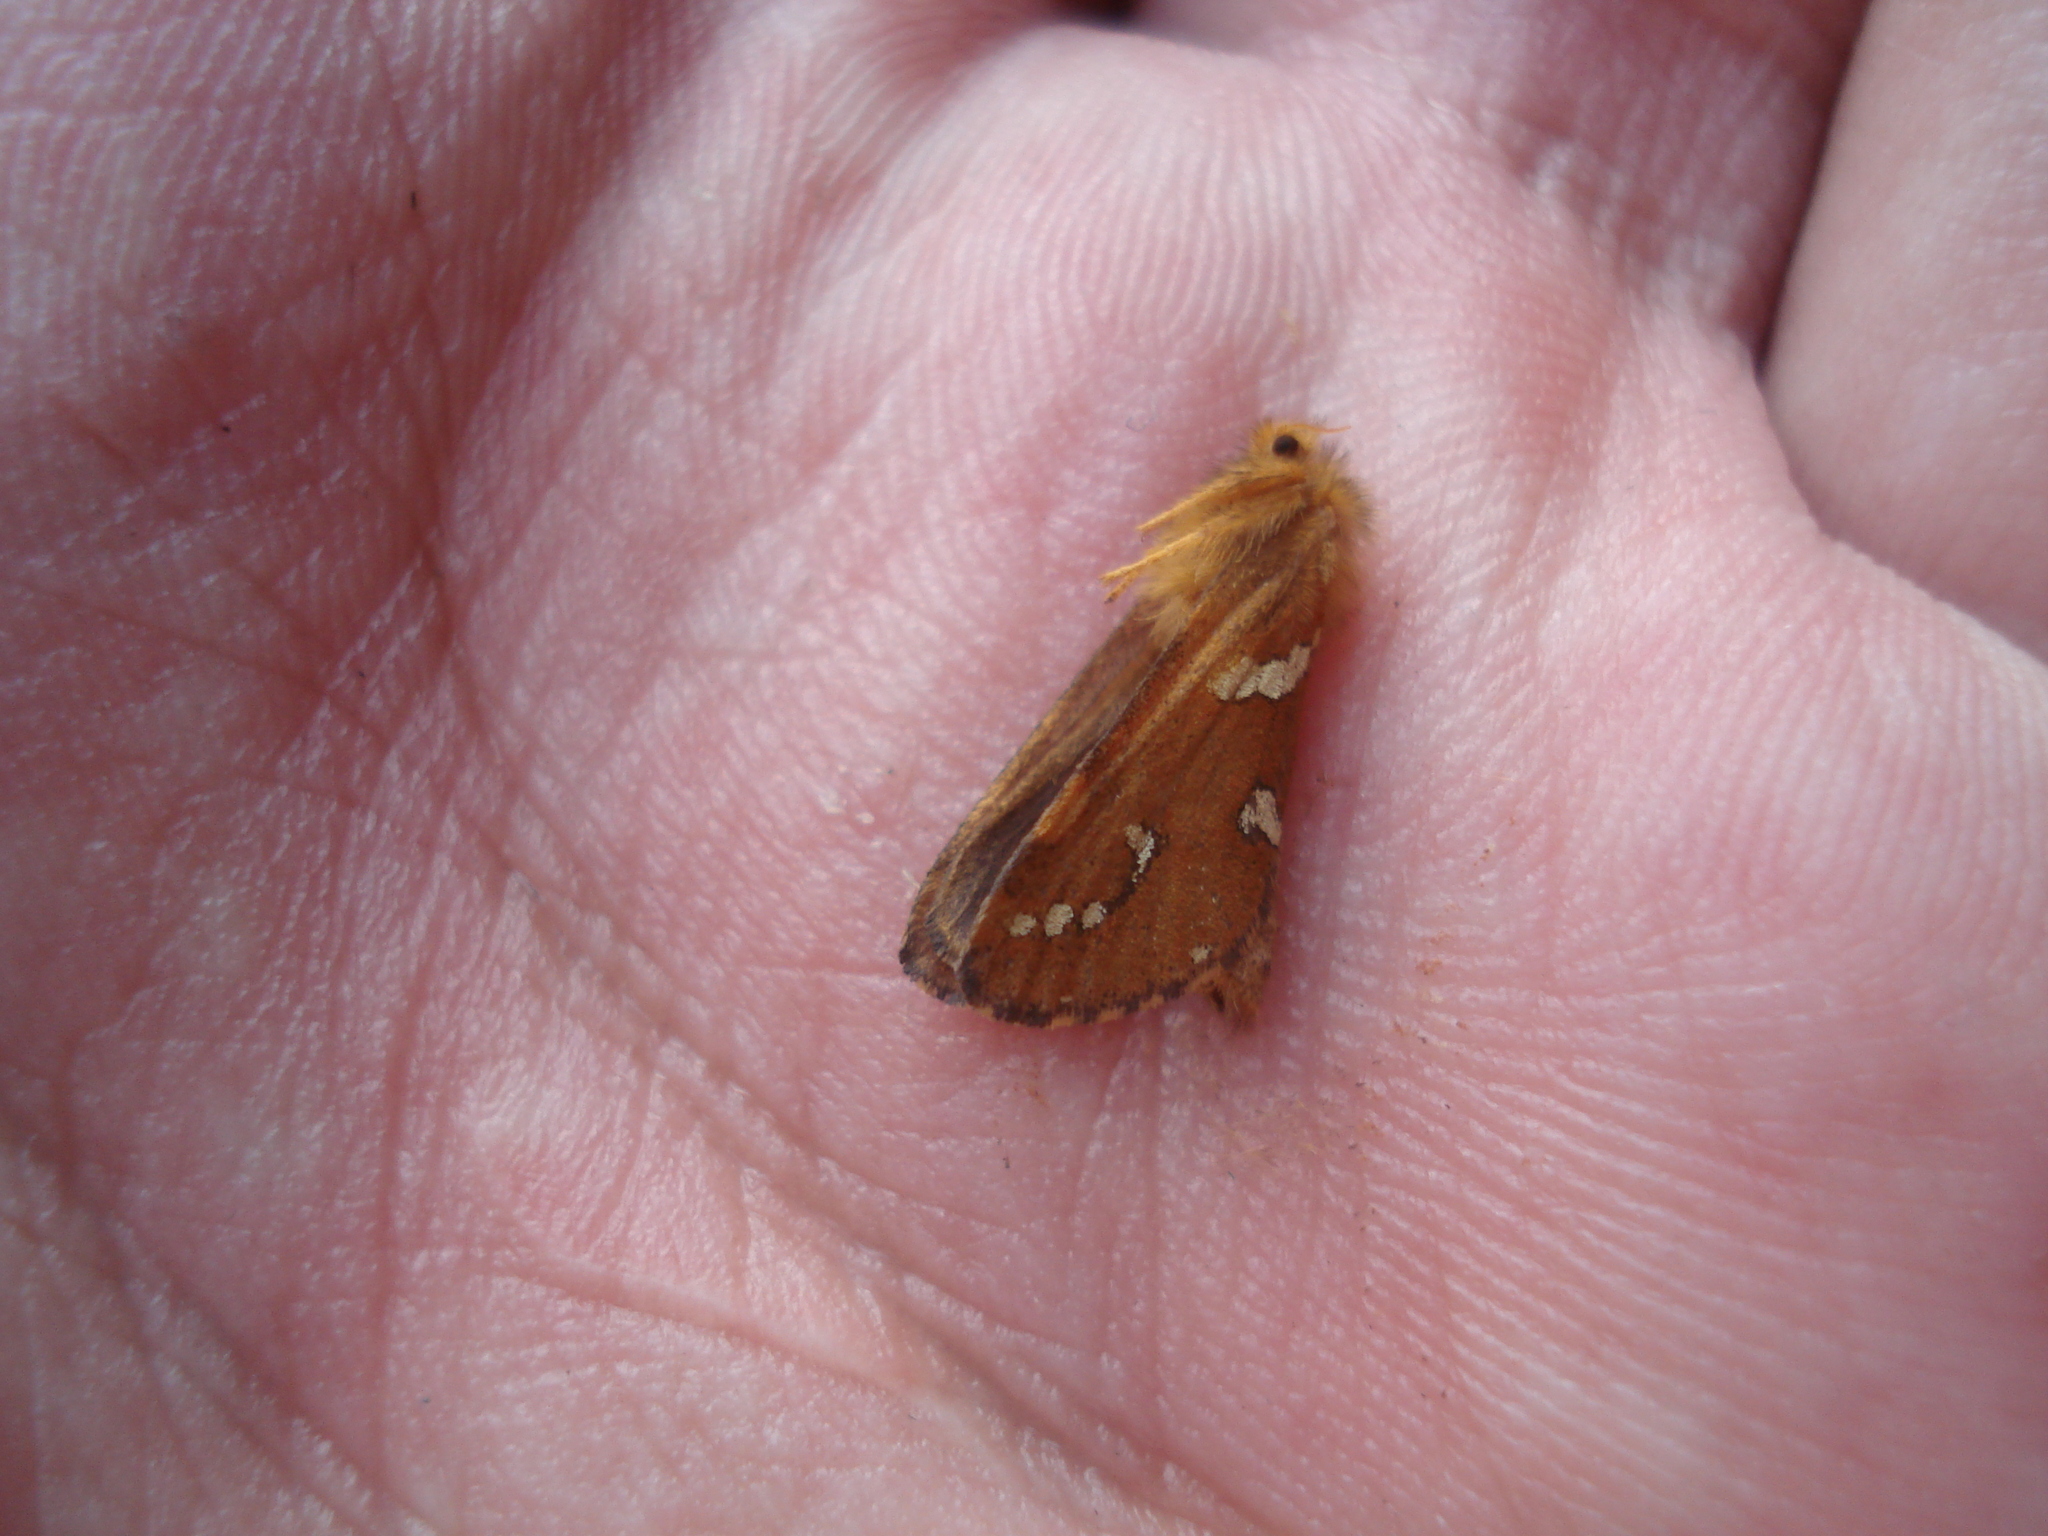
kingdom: Animalia
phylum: Arthropoda
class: Insecta
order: Lepidoptera
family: Hepialidae
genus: Phymatopus
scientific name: Phymatopus hecta
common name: Gold swift
